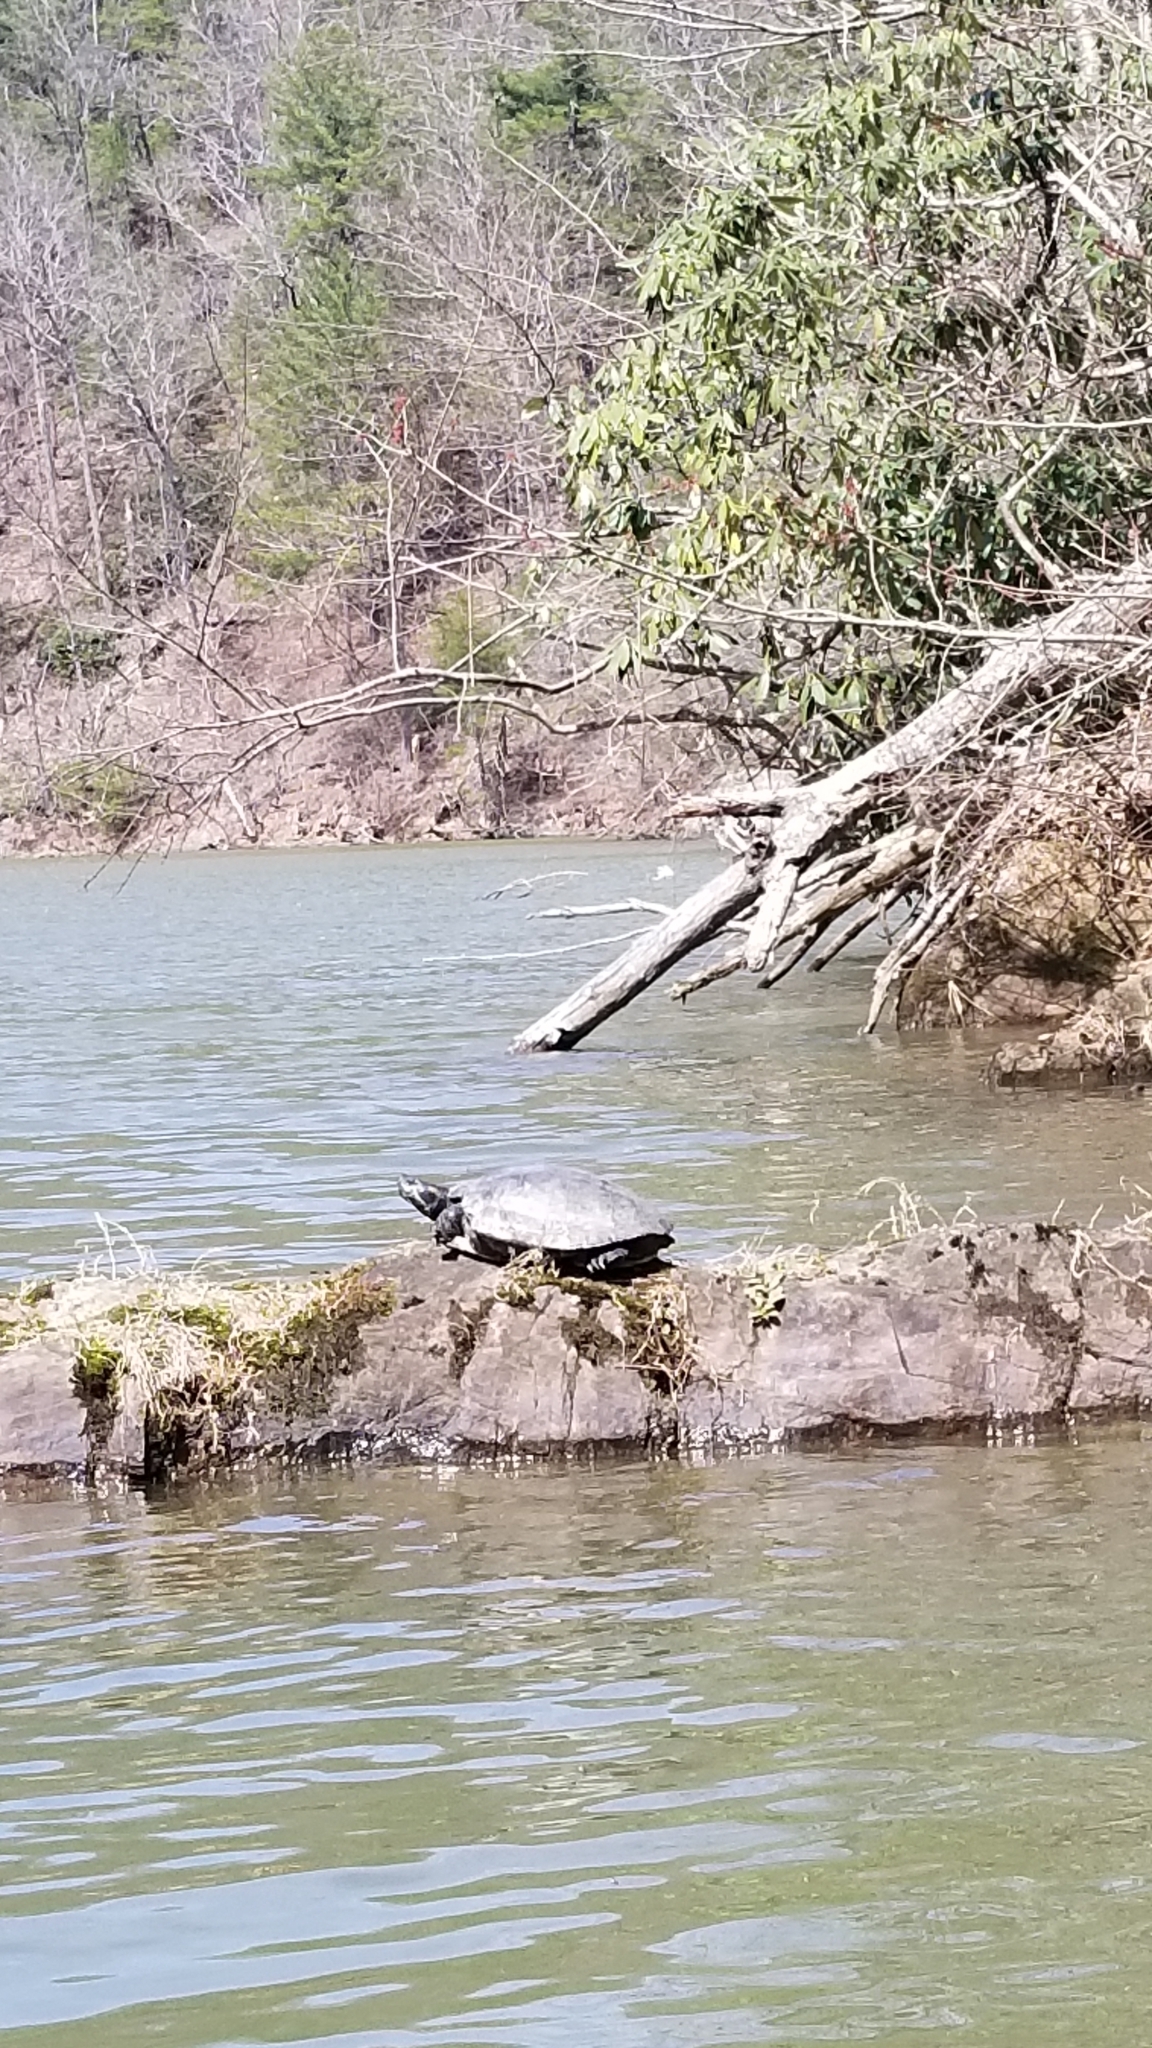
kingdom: Animalia
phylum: Chordata
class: Testudines
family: Emydidae
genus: Pseudemys
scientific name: Pseudemys concinna
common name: Eastern river cooter
